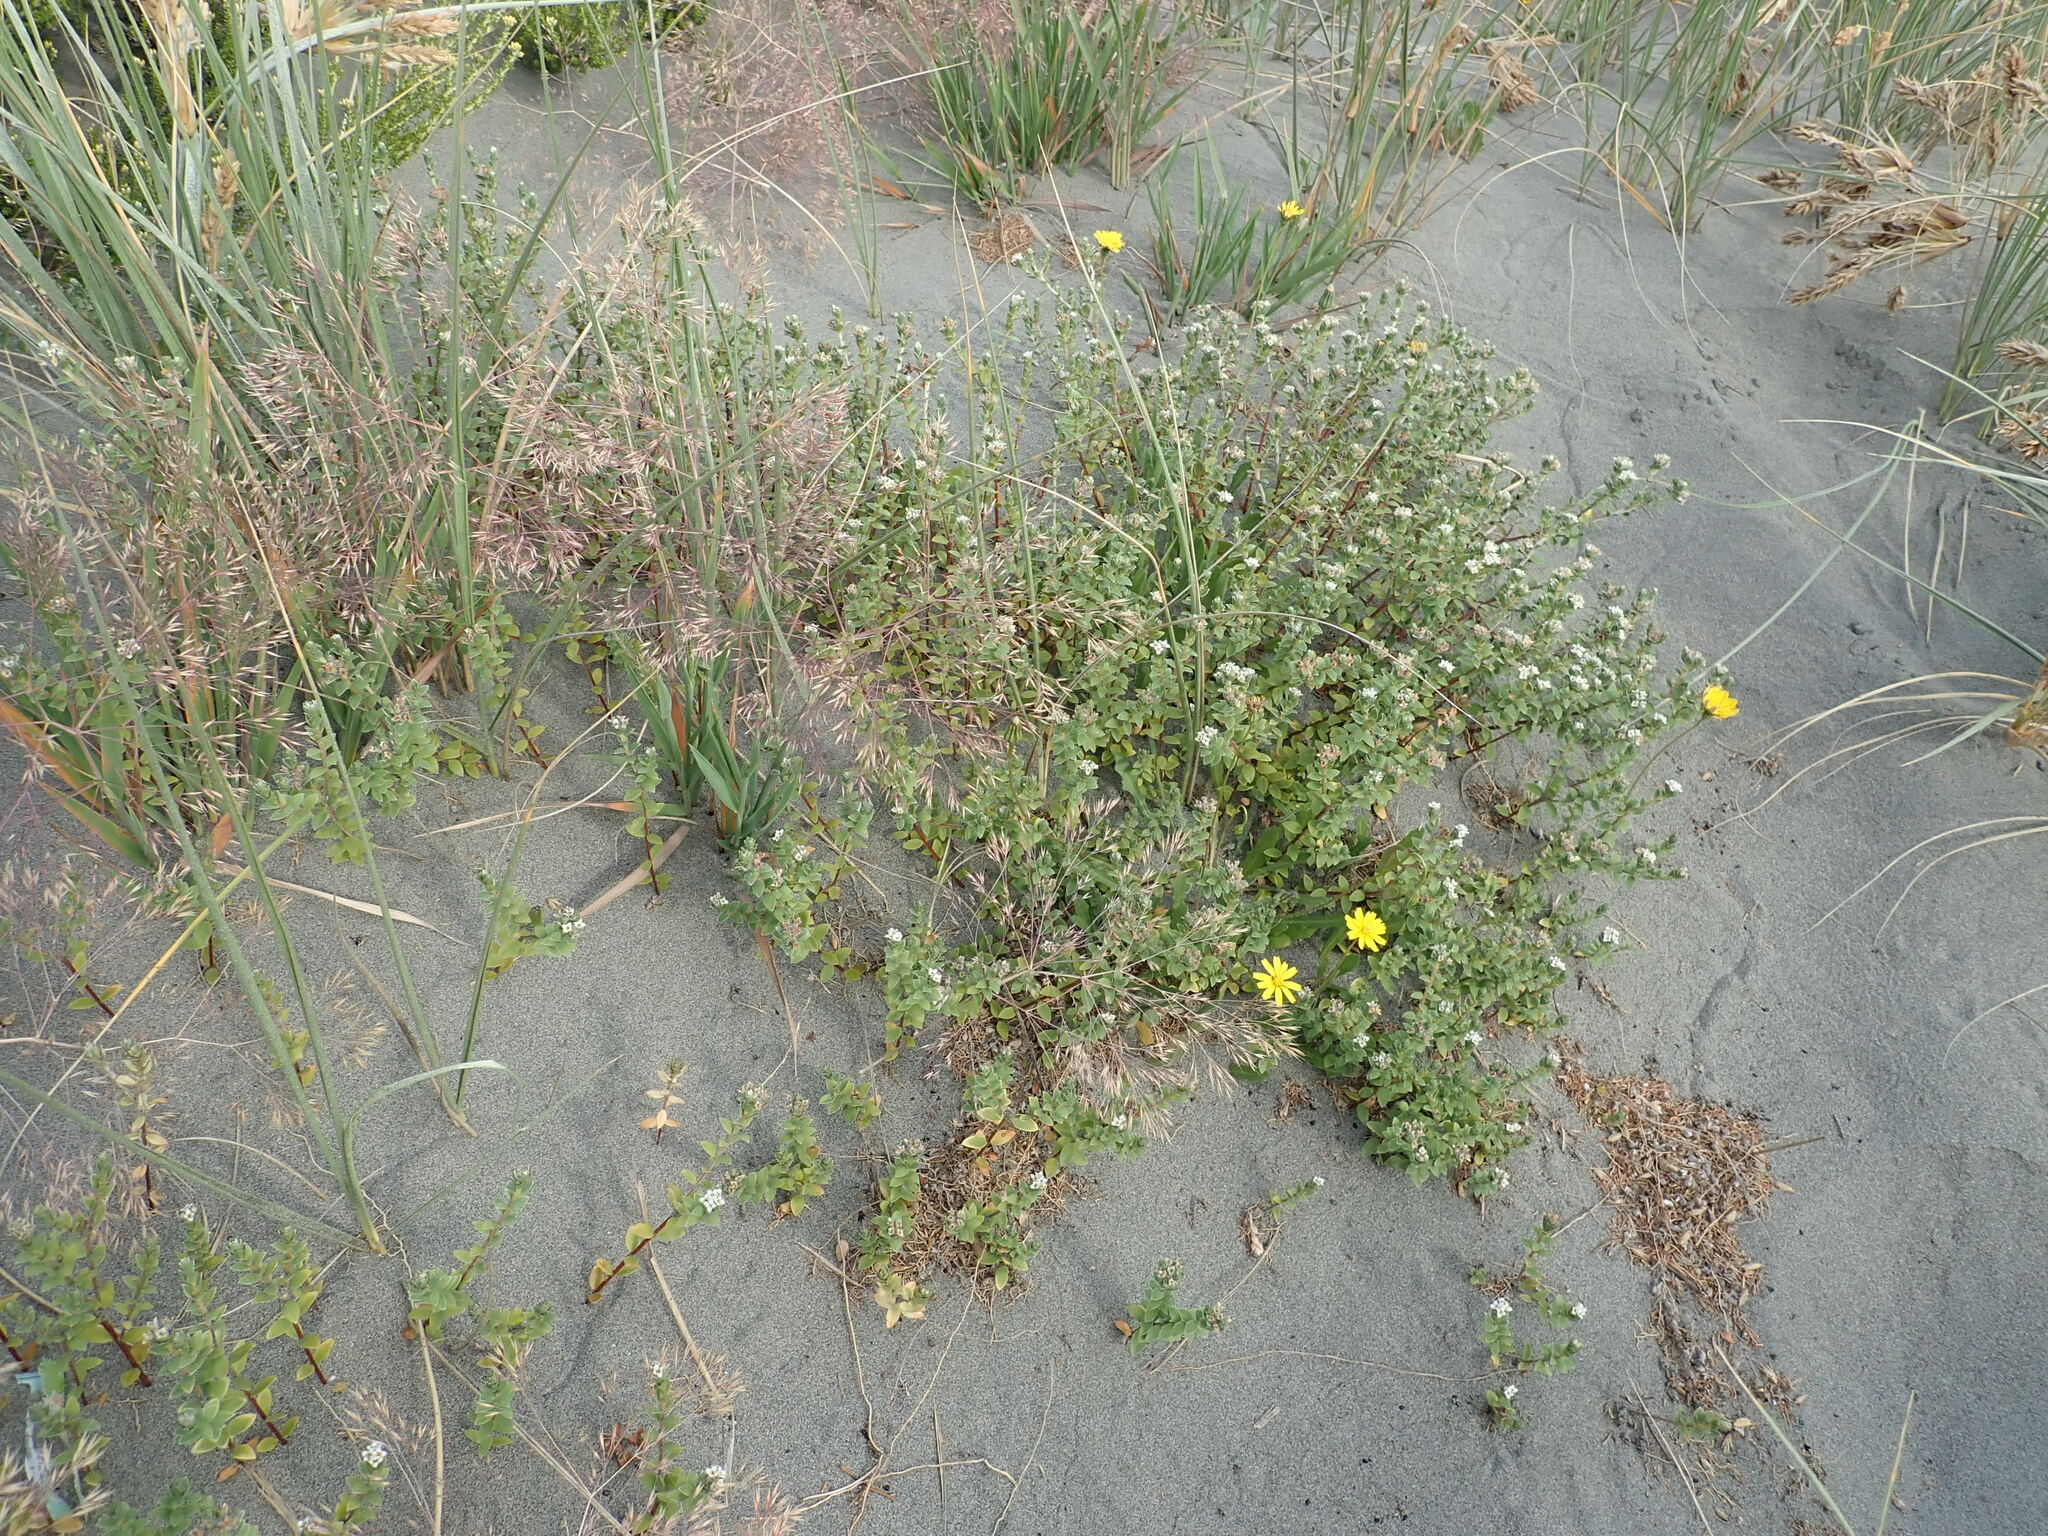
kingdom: Plantae
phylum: Tracheophyta
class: Magnoliopsida
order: Malvales
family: Thymelaeaceae
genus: Pimelea
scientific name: Pimelea villosa
